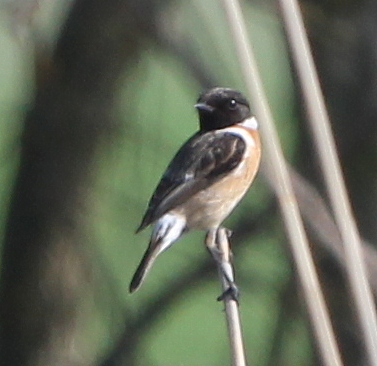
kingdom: Animalia
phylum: Chordata
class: Aves
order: Passeriformes
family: Muscicapidae
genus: Saxicola
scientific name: Saxicola rubicola
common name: European stonechat
